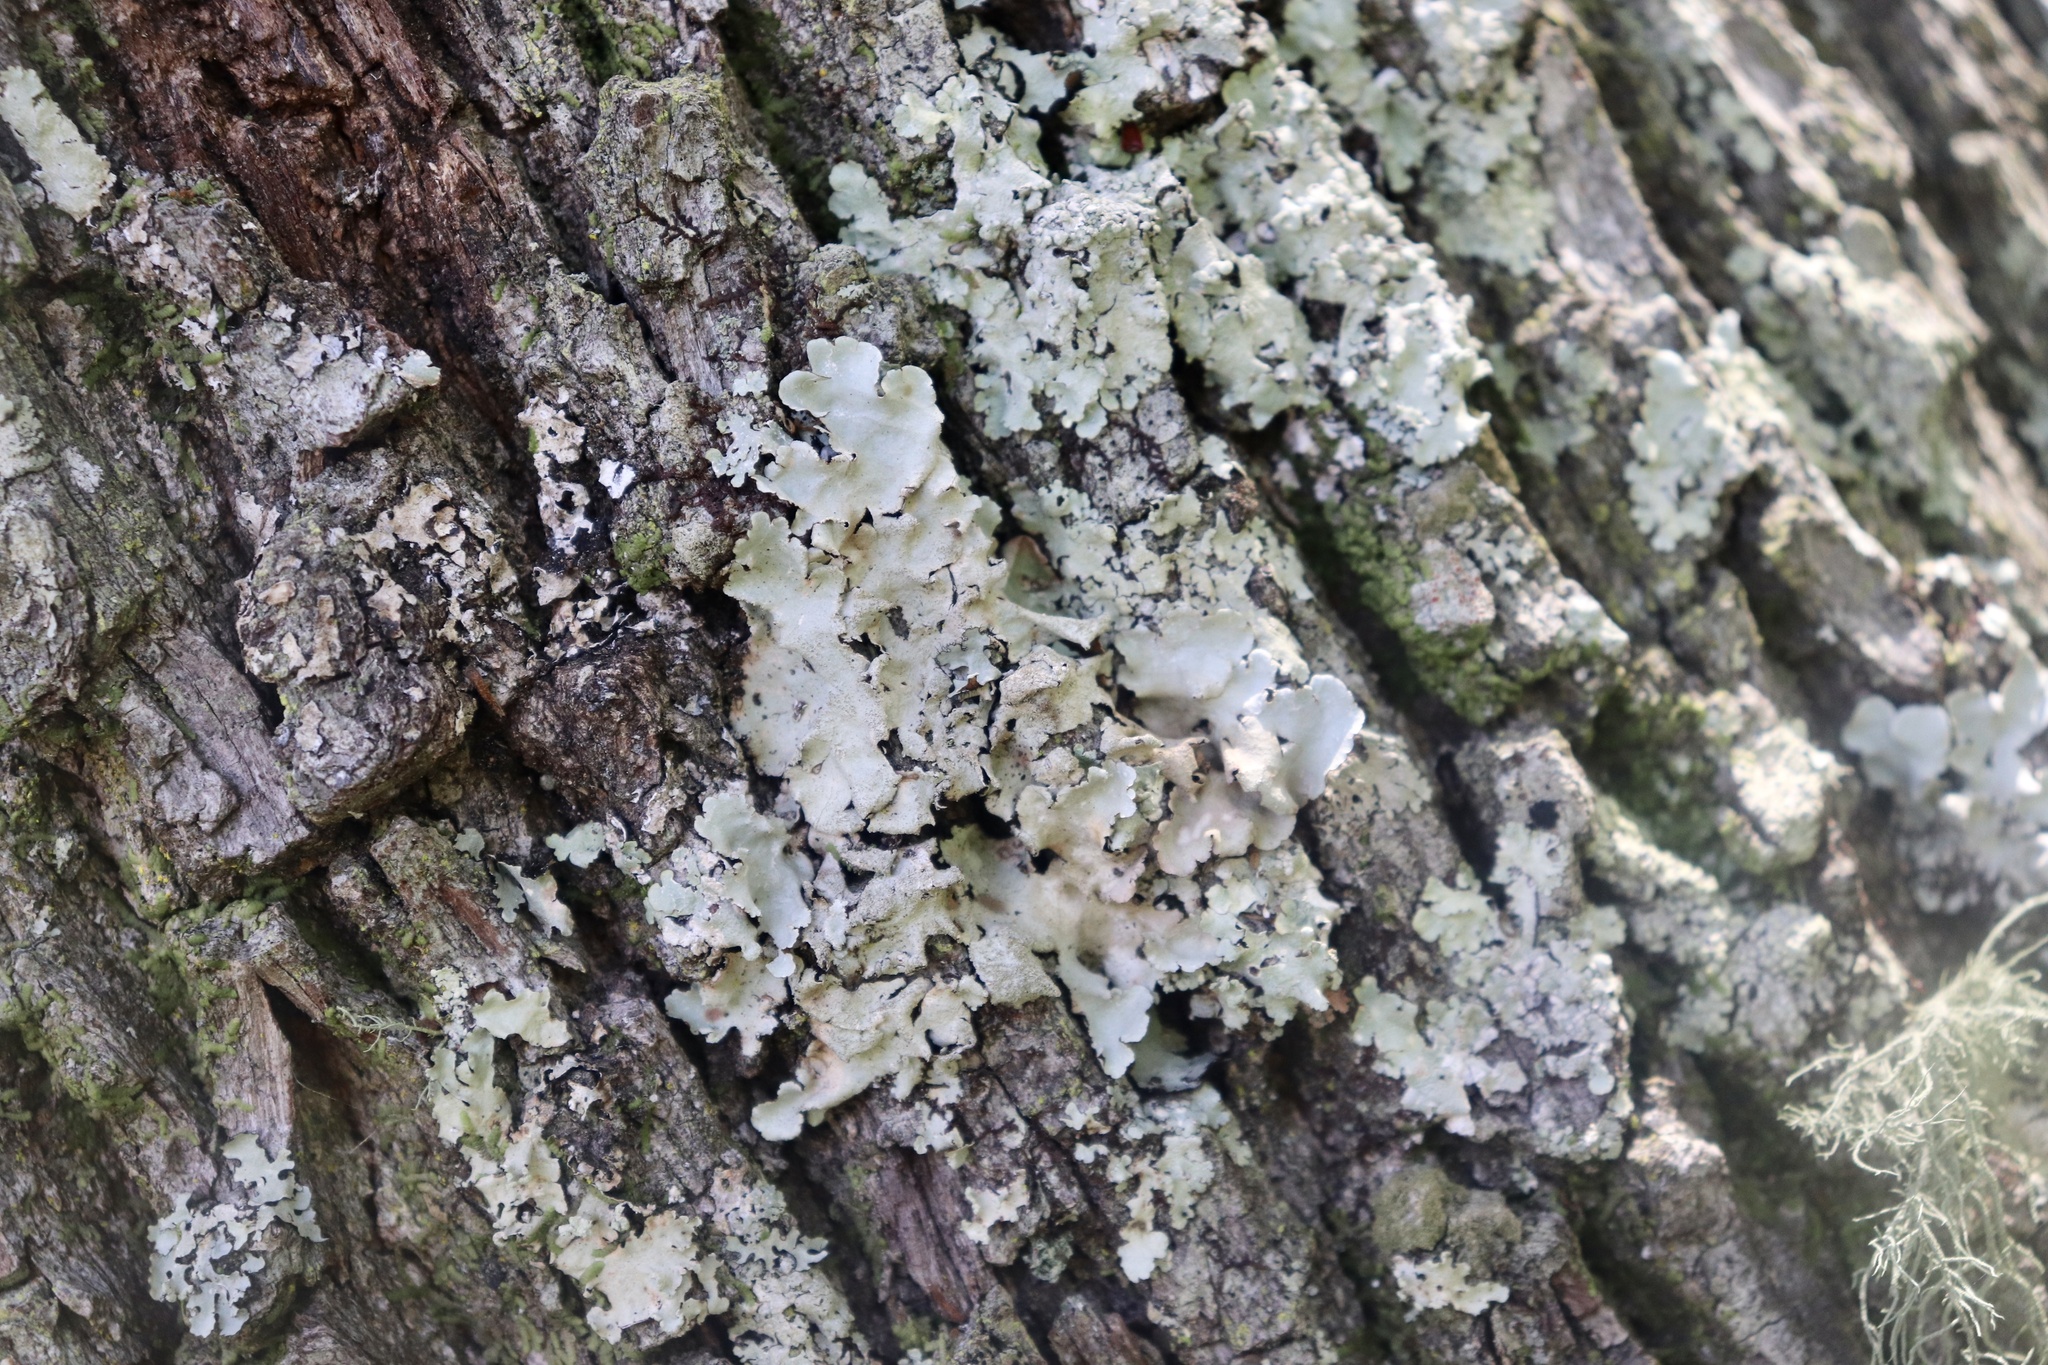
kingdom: Fungi
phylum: Ascomycota
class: Lecanoromycetes
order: Lecanorales
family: Parmeliaceae
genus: Parmotrema
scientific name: Parmotrema tinctorum
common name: Old gray ruffles
